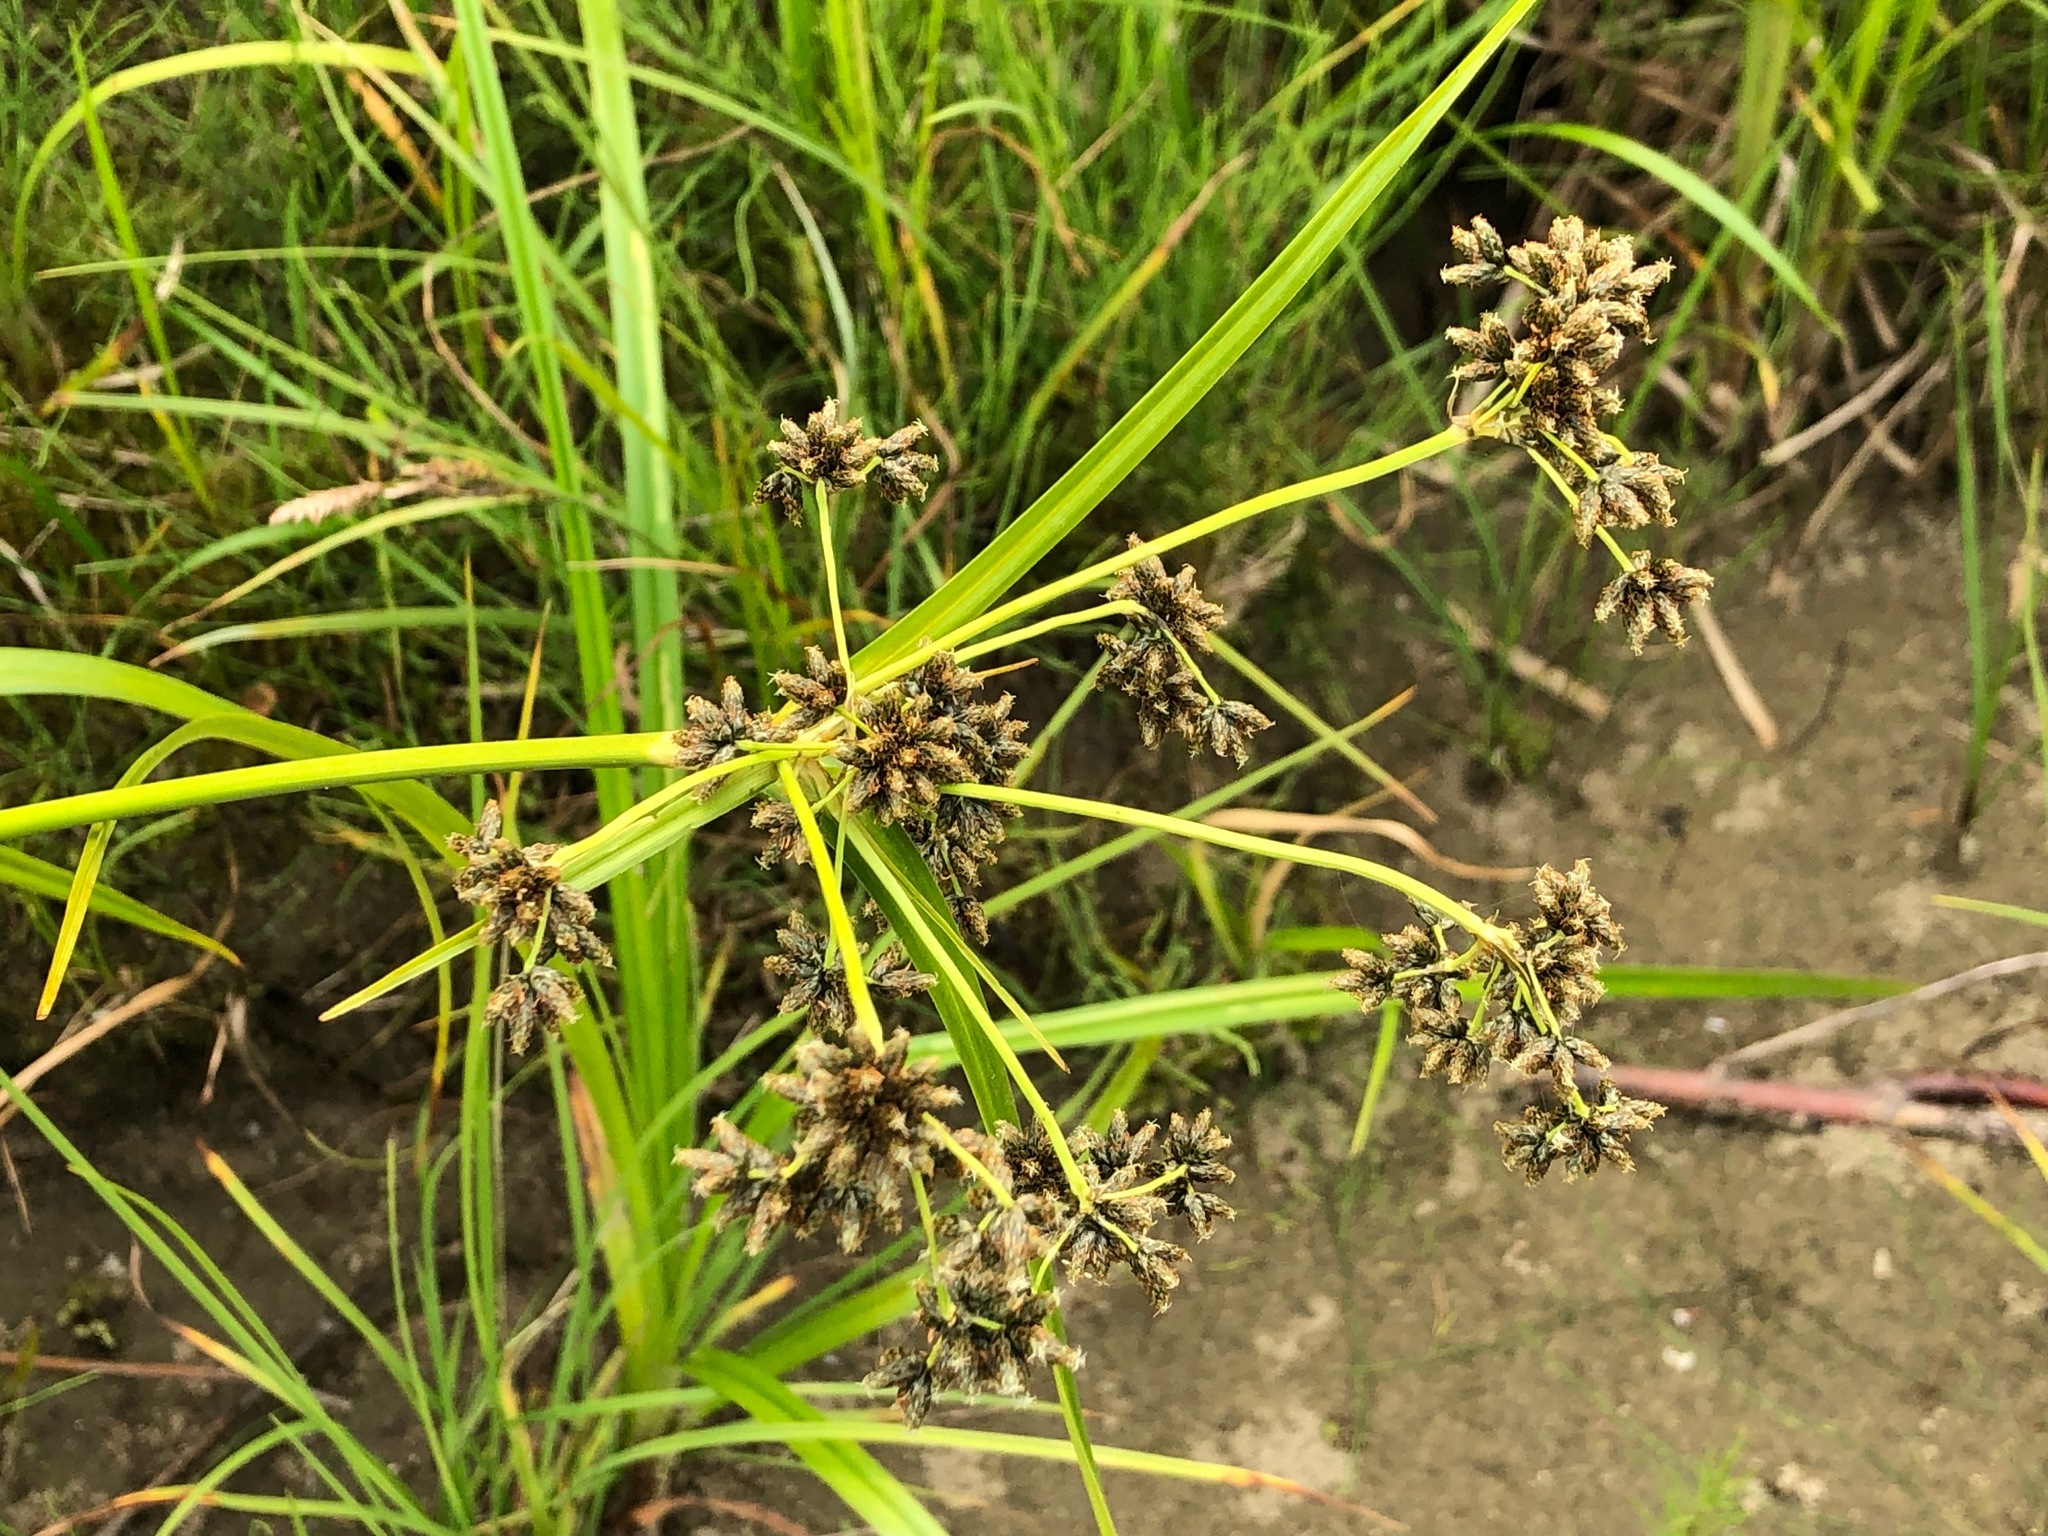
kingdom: Plantae
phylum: Tracheophyta
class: Liliopsida
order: Poales
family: Cyperaceae
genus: Scirpus
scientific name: Scirpus microcarpus
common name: Panicled bulrush
